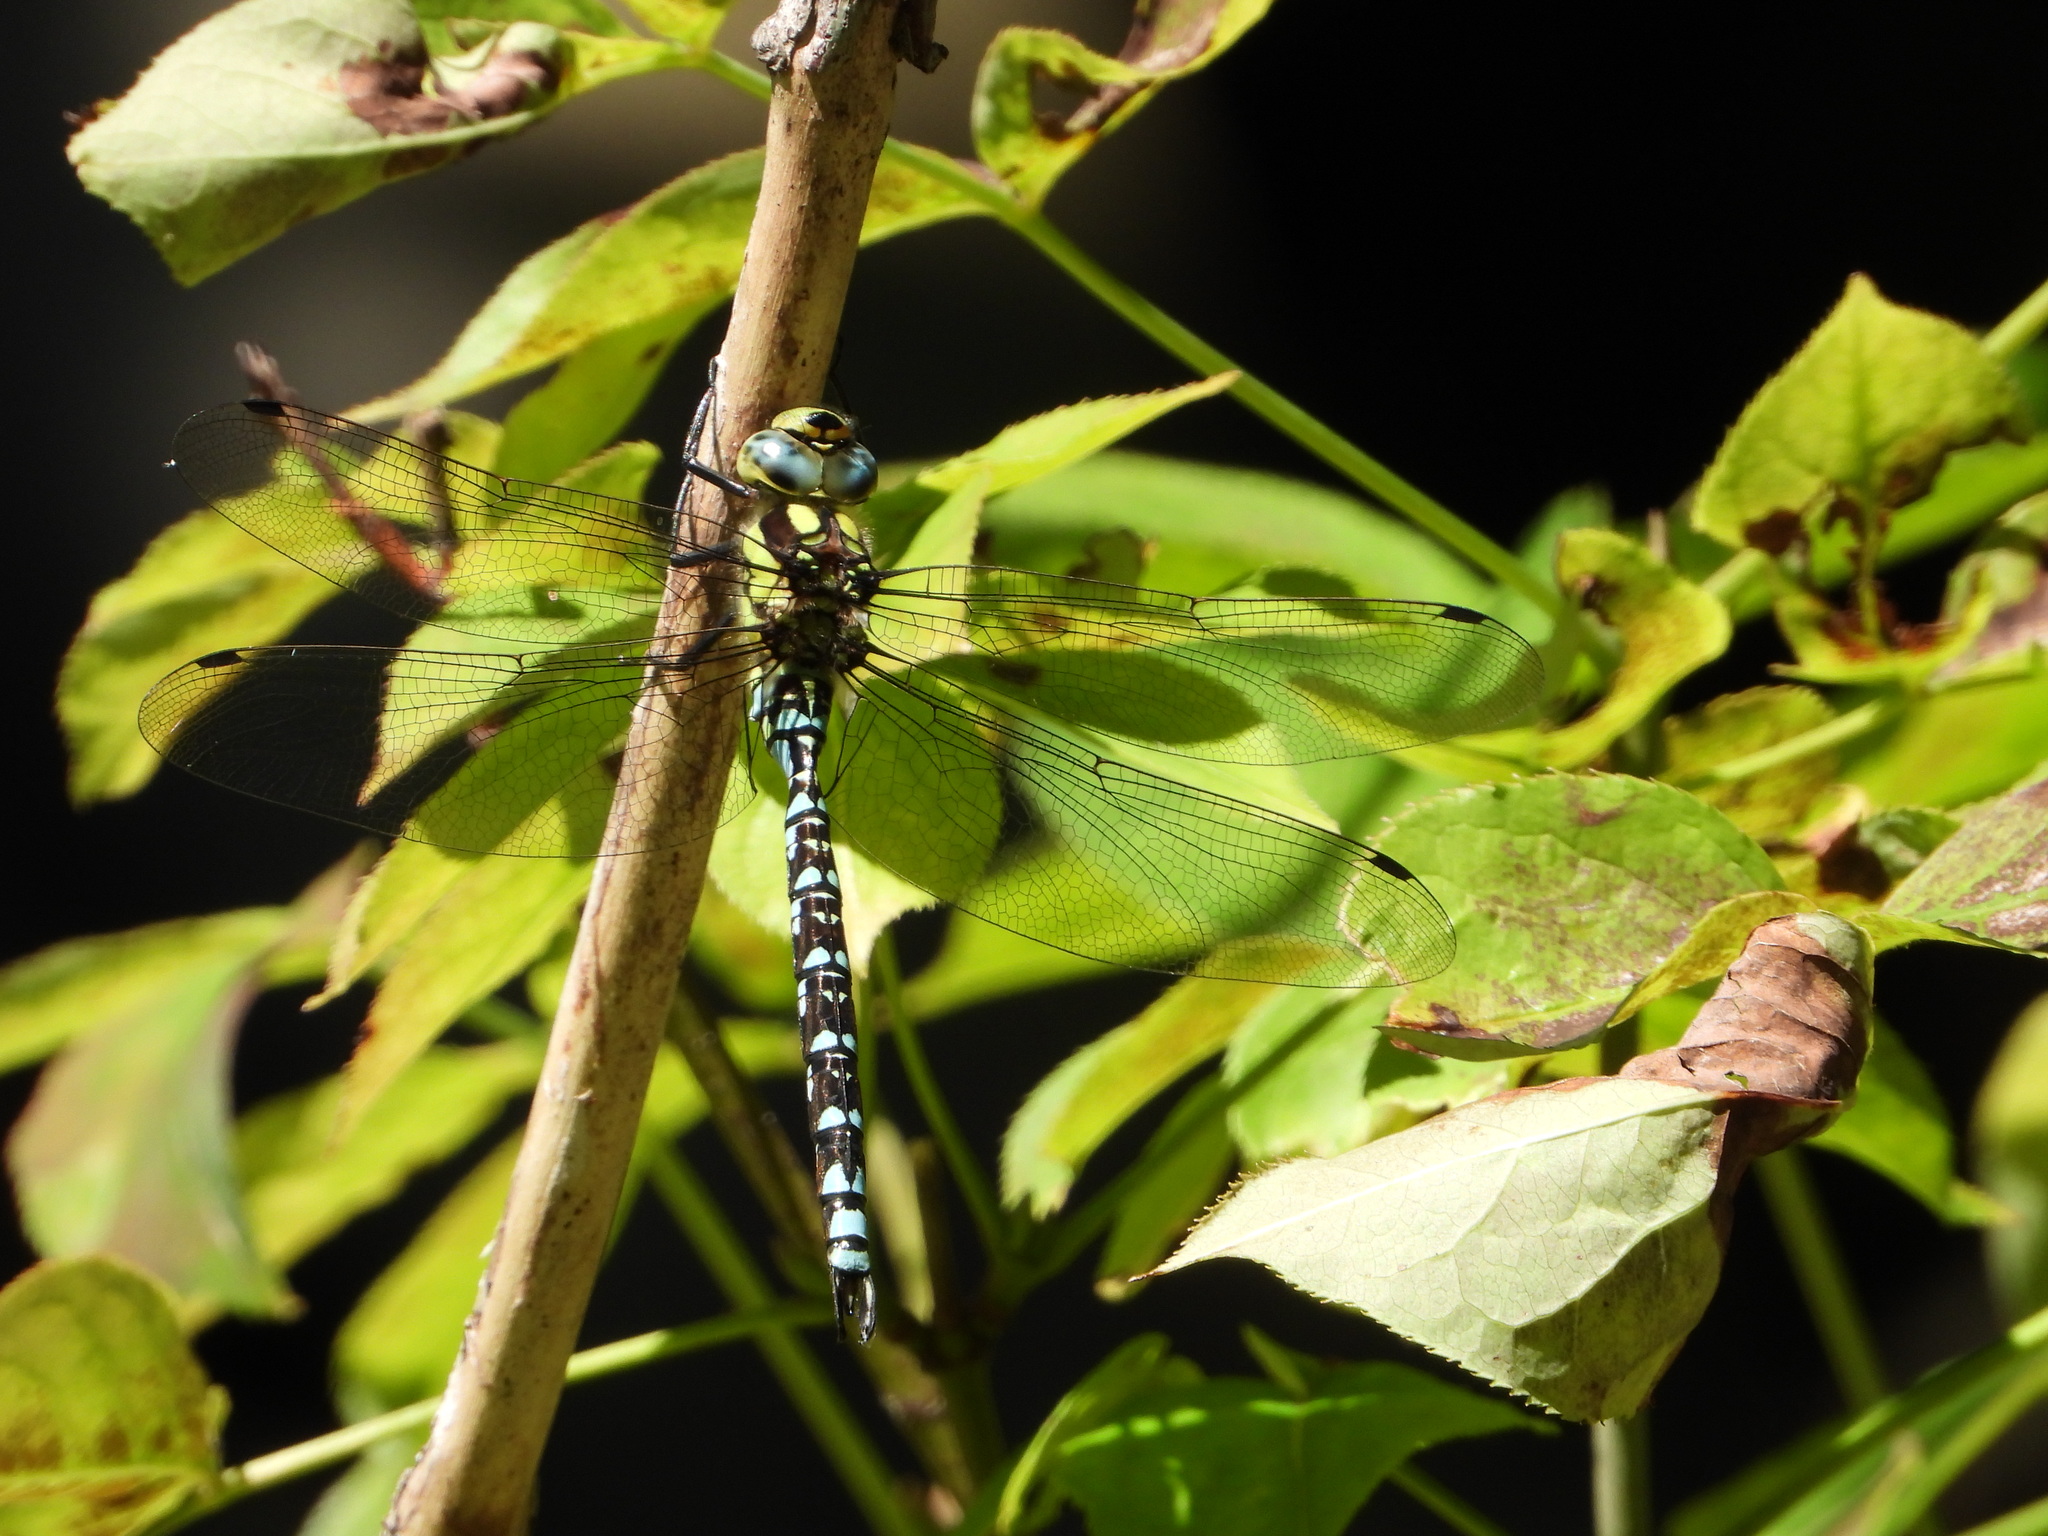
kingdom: Animalia
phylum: Arthropoda
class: Insecta
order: Odonata
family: Aeshnidae
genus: Aeshna
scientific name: Aeshna cyanea
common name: Southern hawker
